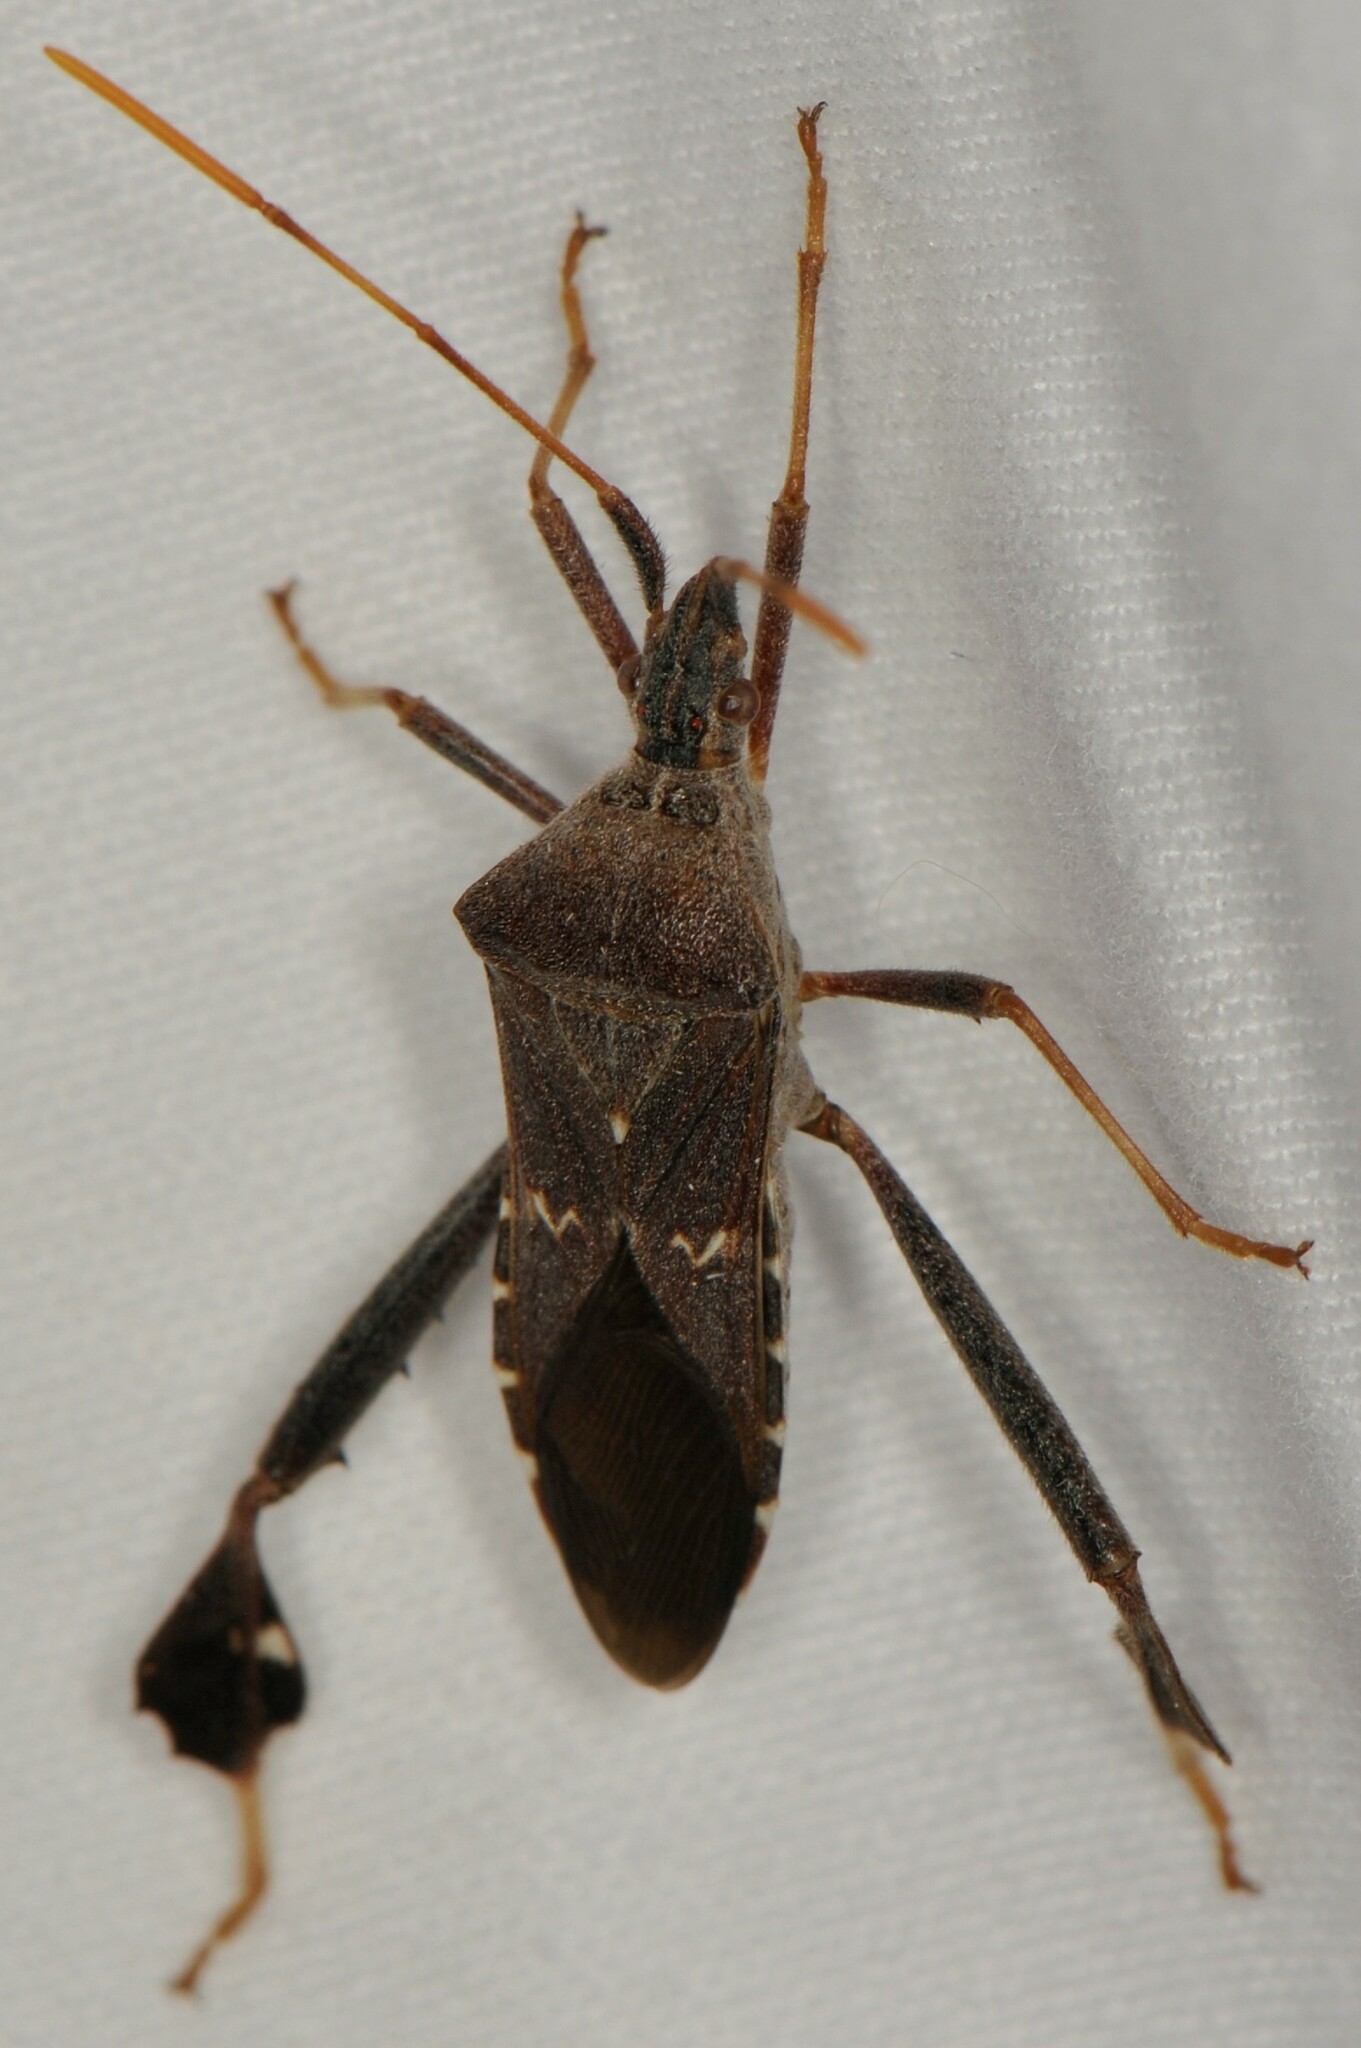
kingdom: Animalia
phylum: Arthropoda
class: Insecta
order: Hemiptera
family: Coreidae
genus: Leptoglossus
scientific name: Leptoglossus oppositus
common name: Northern leaf-footed bug
